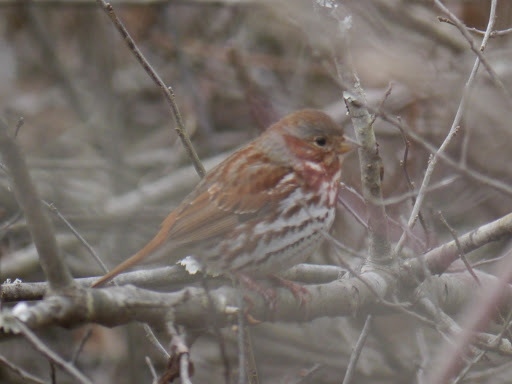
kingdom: Animalia
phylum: Chordata
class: Aves
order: Passeriformes
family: Passerellidae
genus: Passerella
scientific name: Passerella iliaca
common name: Fox sparrow
